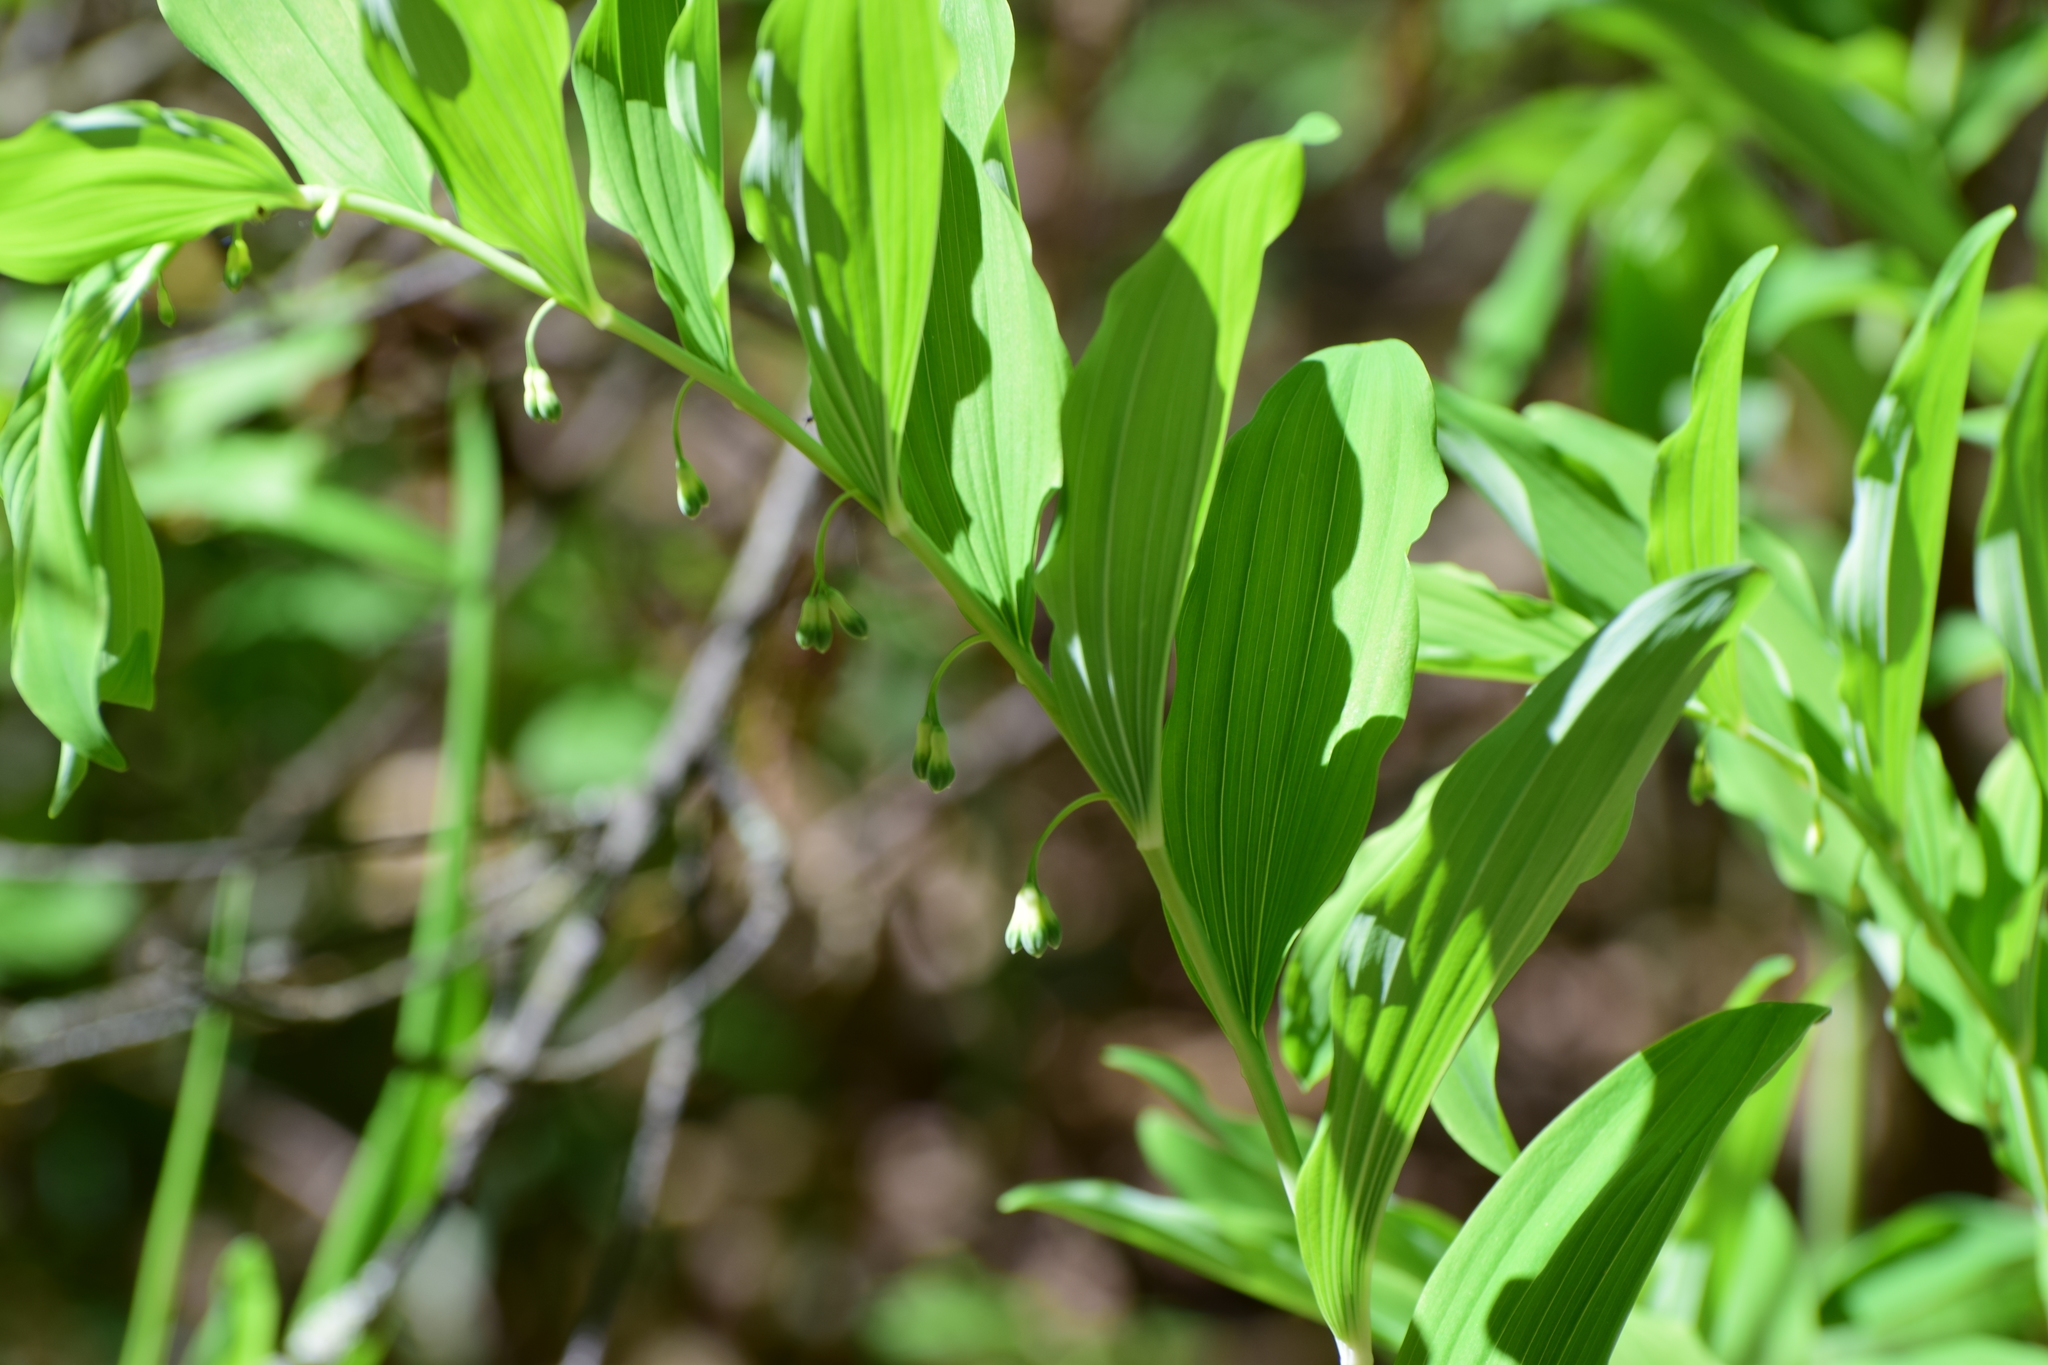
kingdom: Plantae
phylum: Tracheophyta
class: Liliopsida
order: Asparagales
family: Asparagaceae
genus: Polygonatum
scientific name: Polygonatum multiflorum
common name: Solomon's-seal
